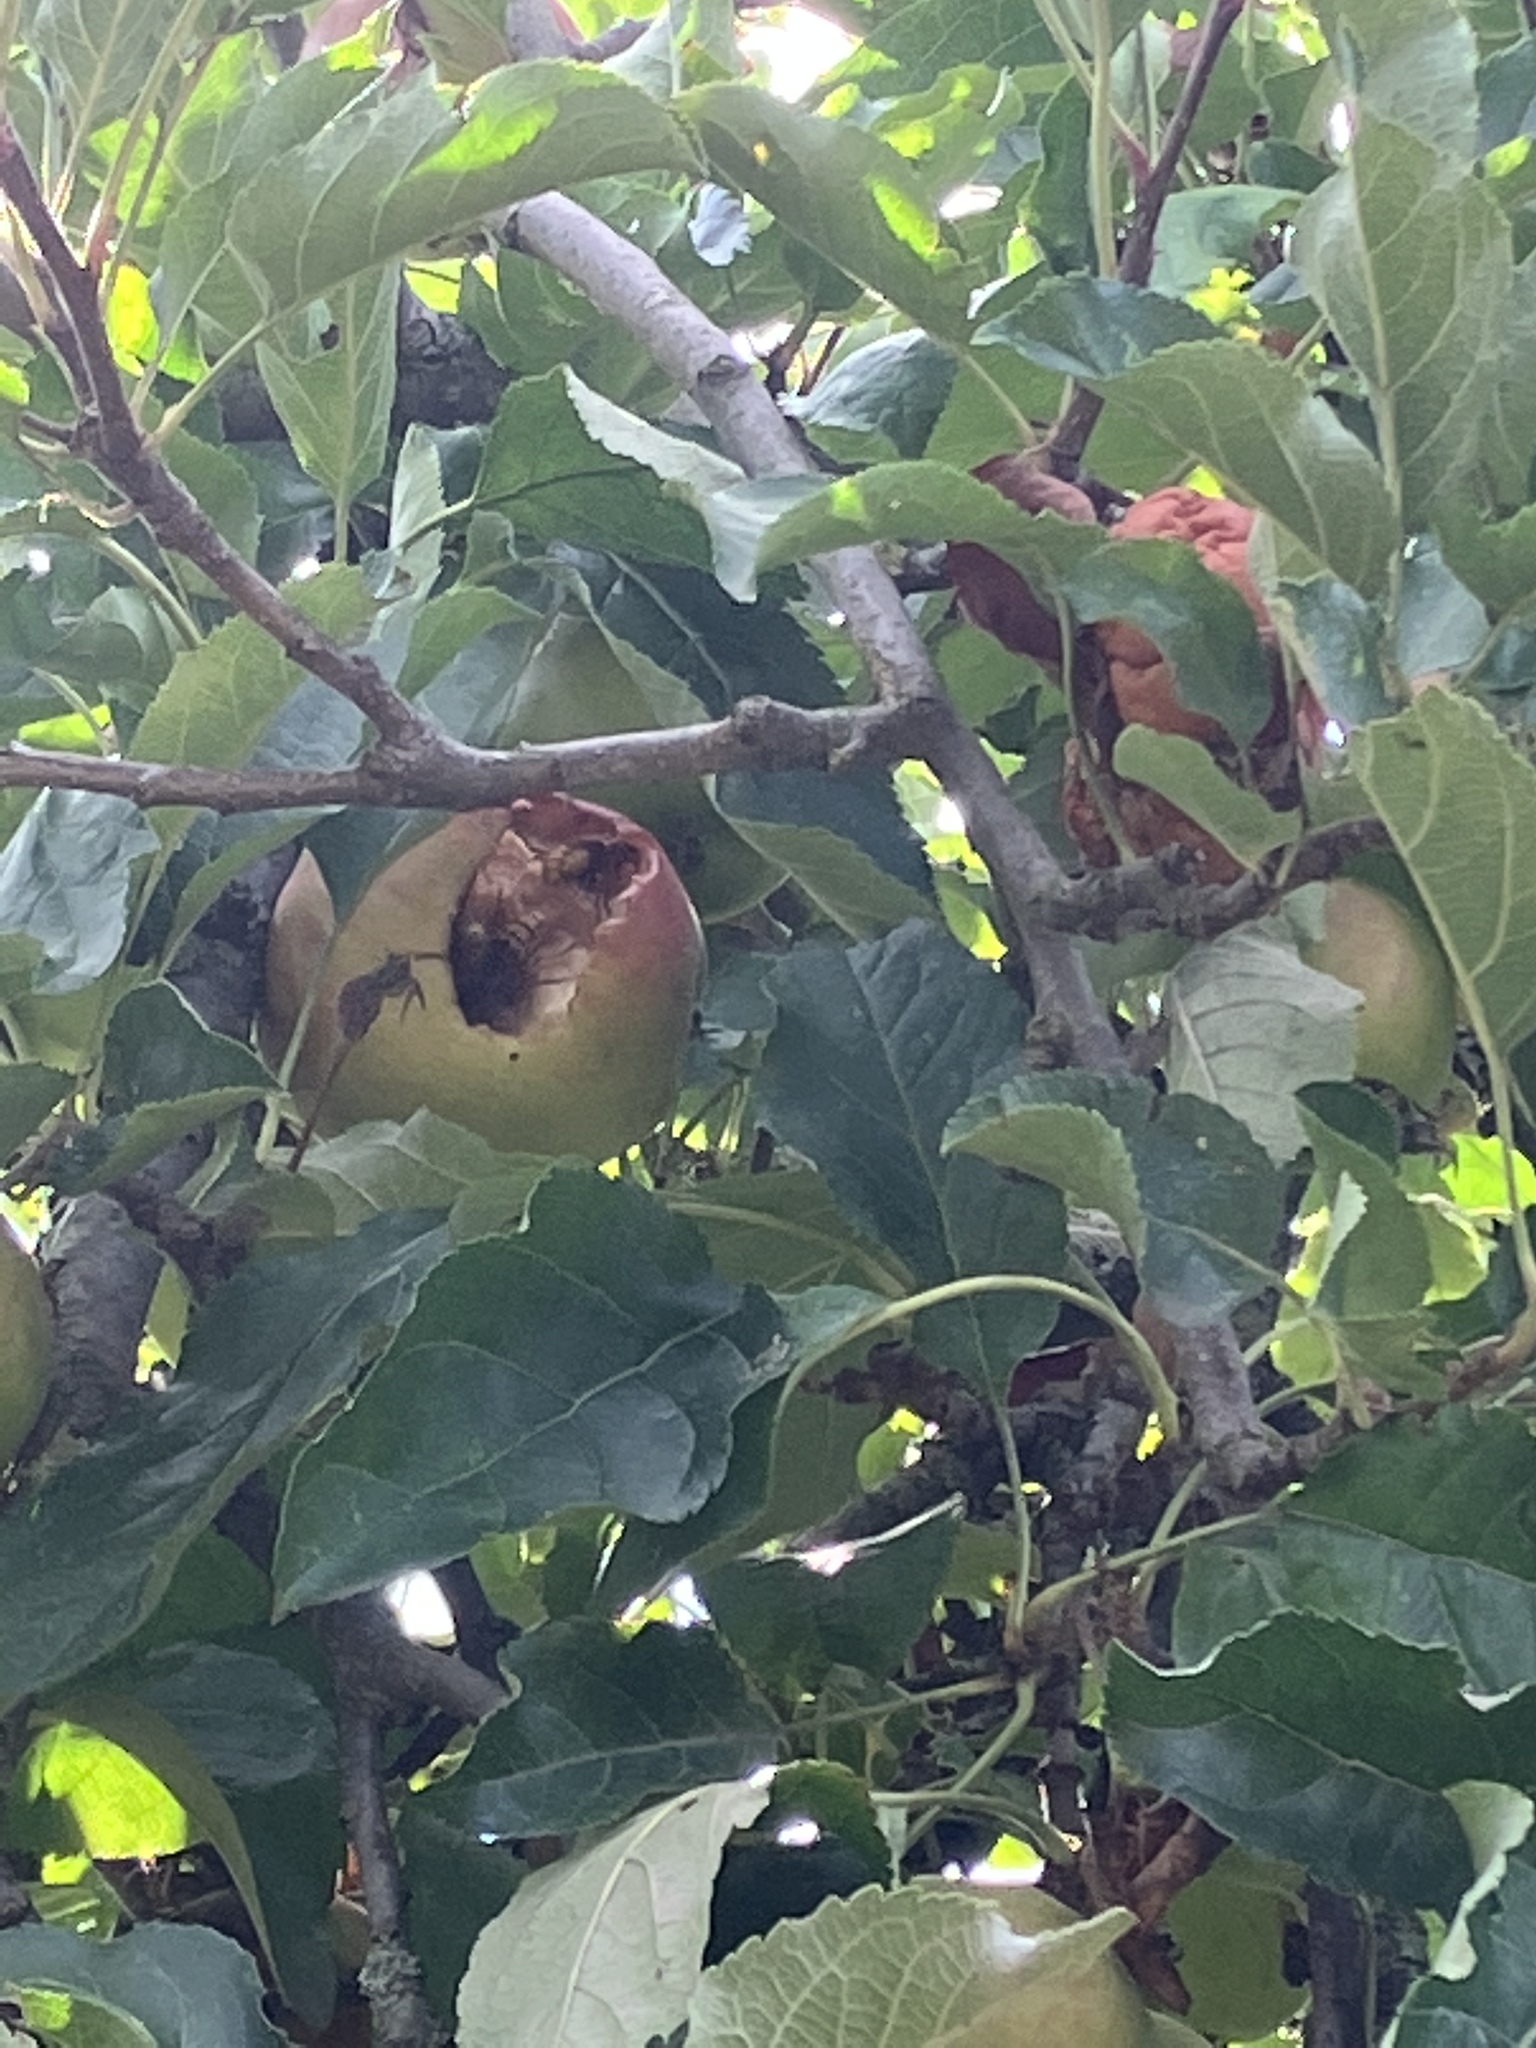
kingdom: Animalia
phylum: Arthropoda
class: Insecta
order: Hymenoptera
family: Vespidae
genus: Vespa
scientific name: Vespa crabro
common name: Hornet
